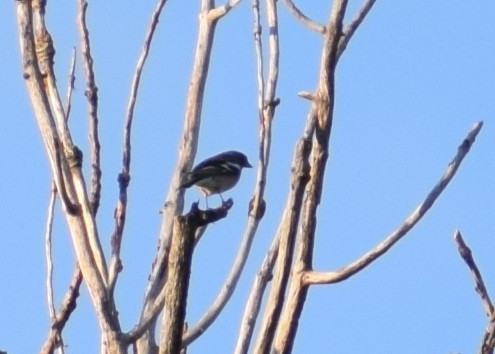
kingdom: Animalia
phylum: Chordata
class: Aves
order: Passeriformes
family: Fringillidae
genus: Fringilla
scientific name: Fringilla coelebs
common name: Common chaffinch
